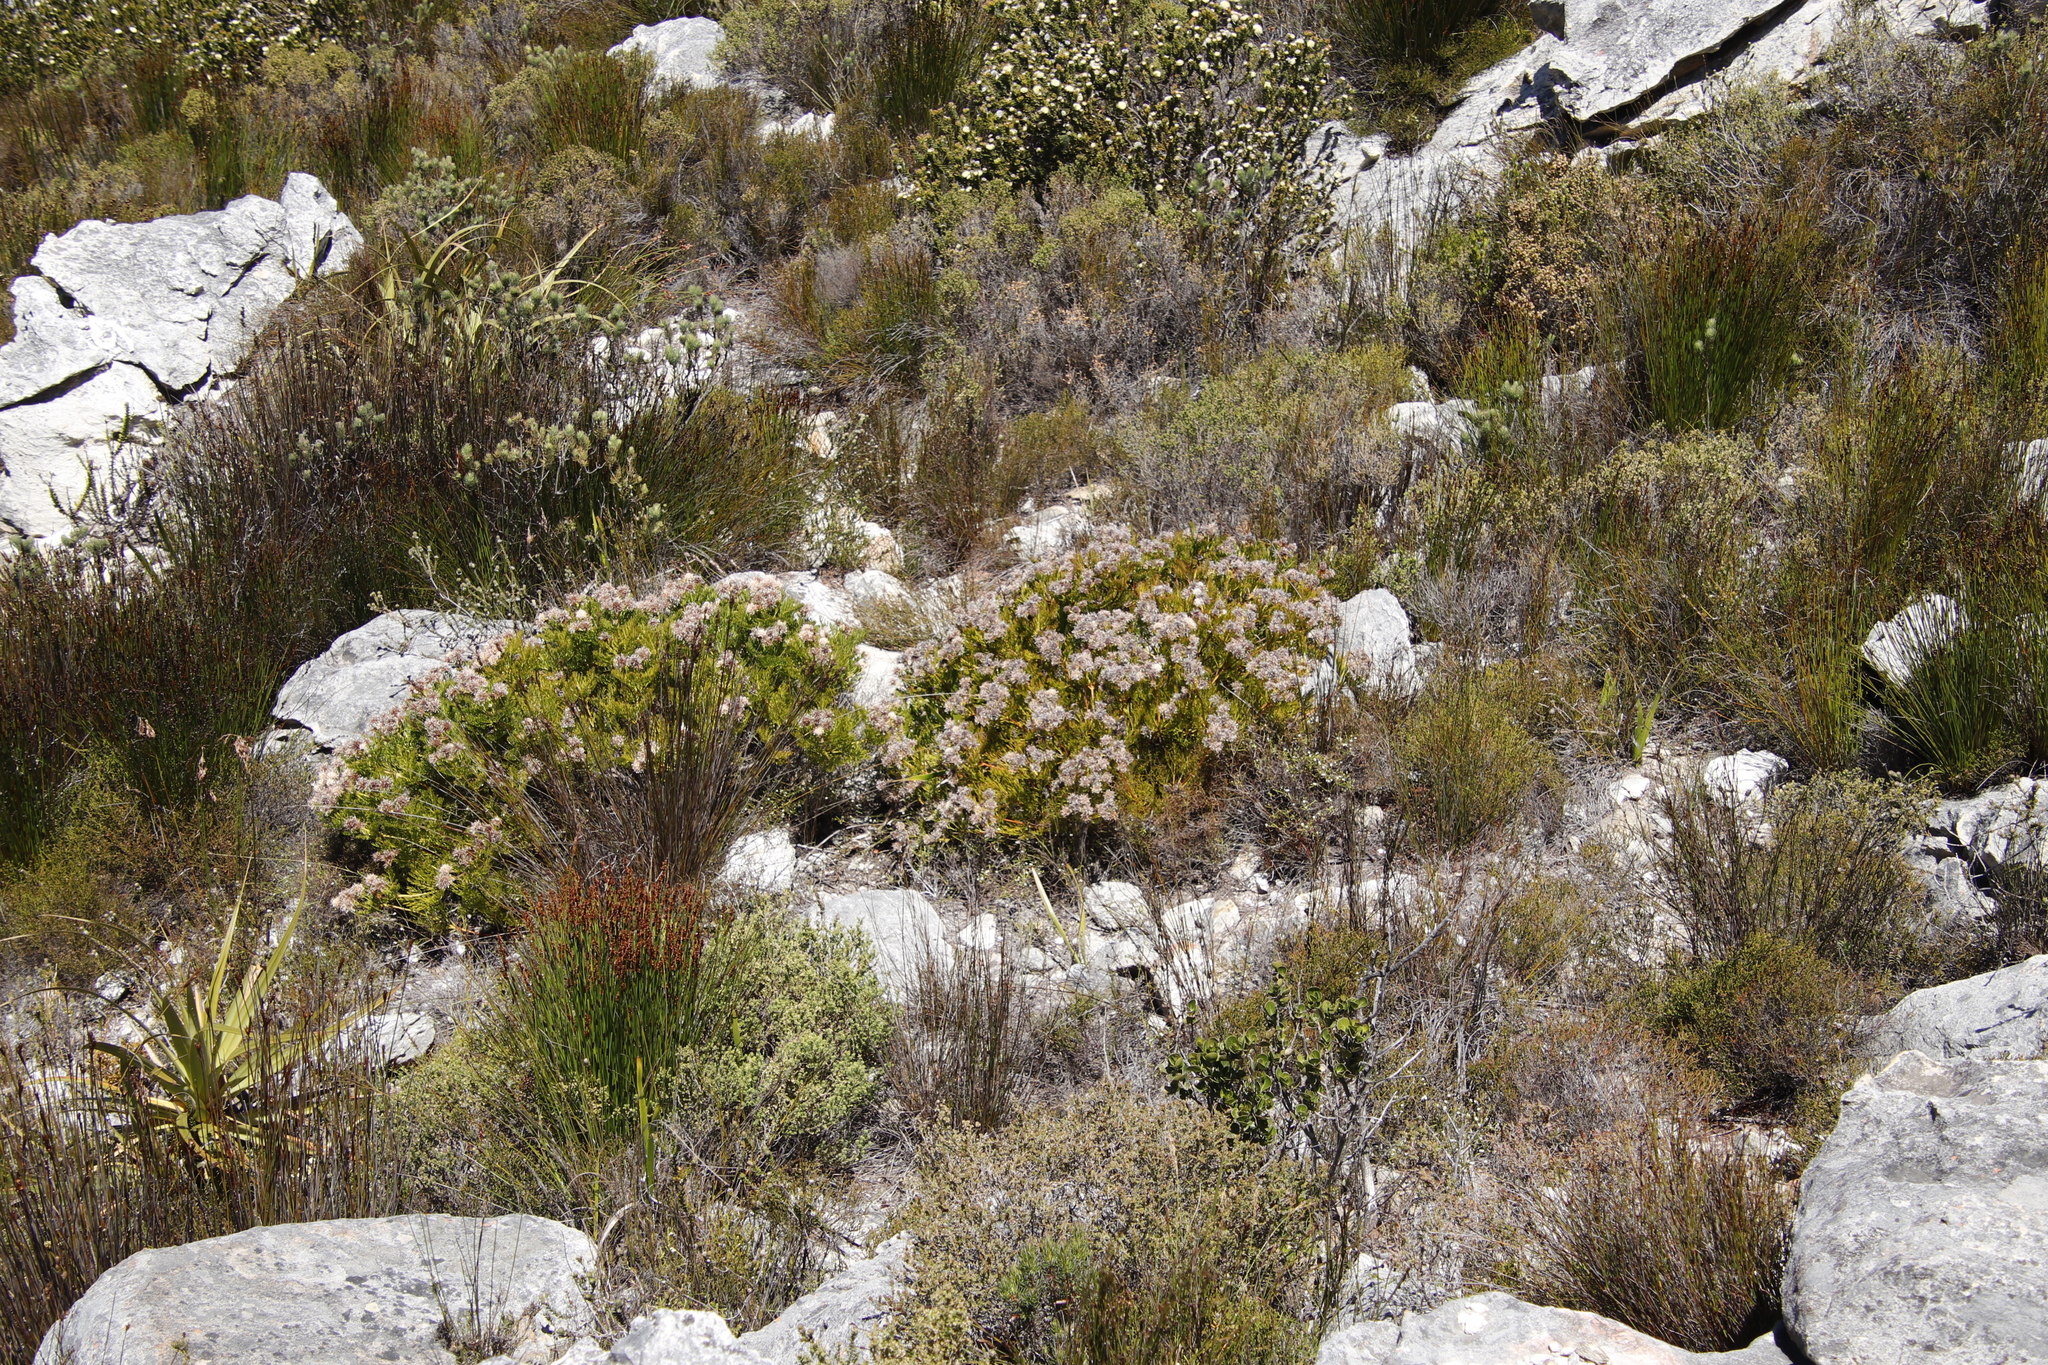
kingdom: Plantae
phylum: Tracheophyta
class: Magnoliopsida
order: Proteales
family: Proteaceae
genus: Serruria
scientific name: Serruria elongata
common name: Long-stalk spiderhead
